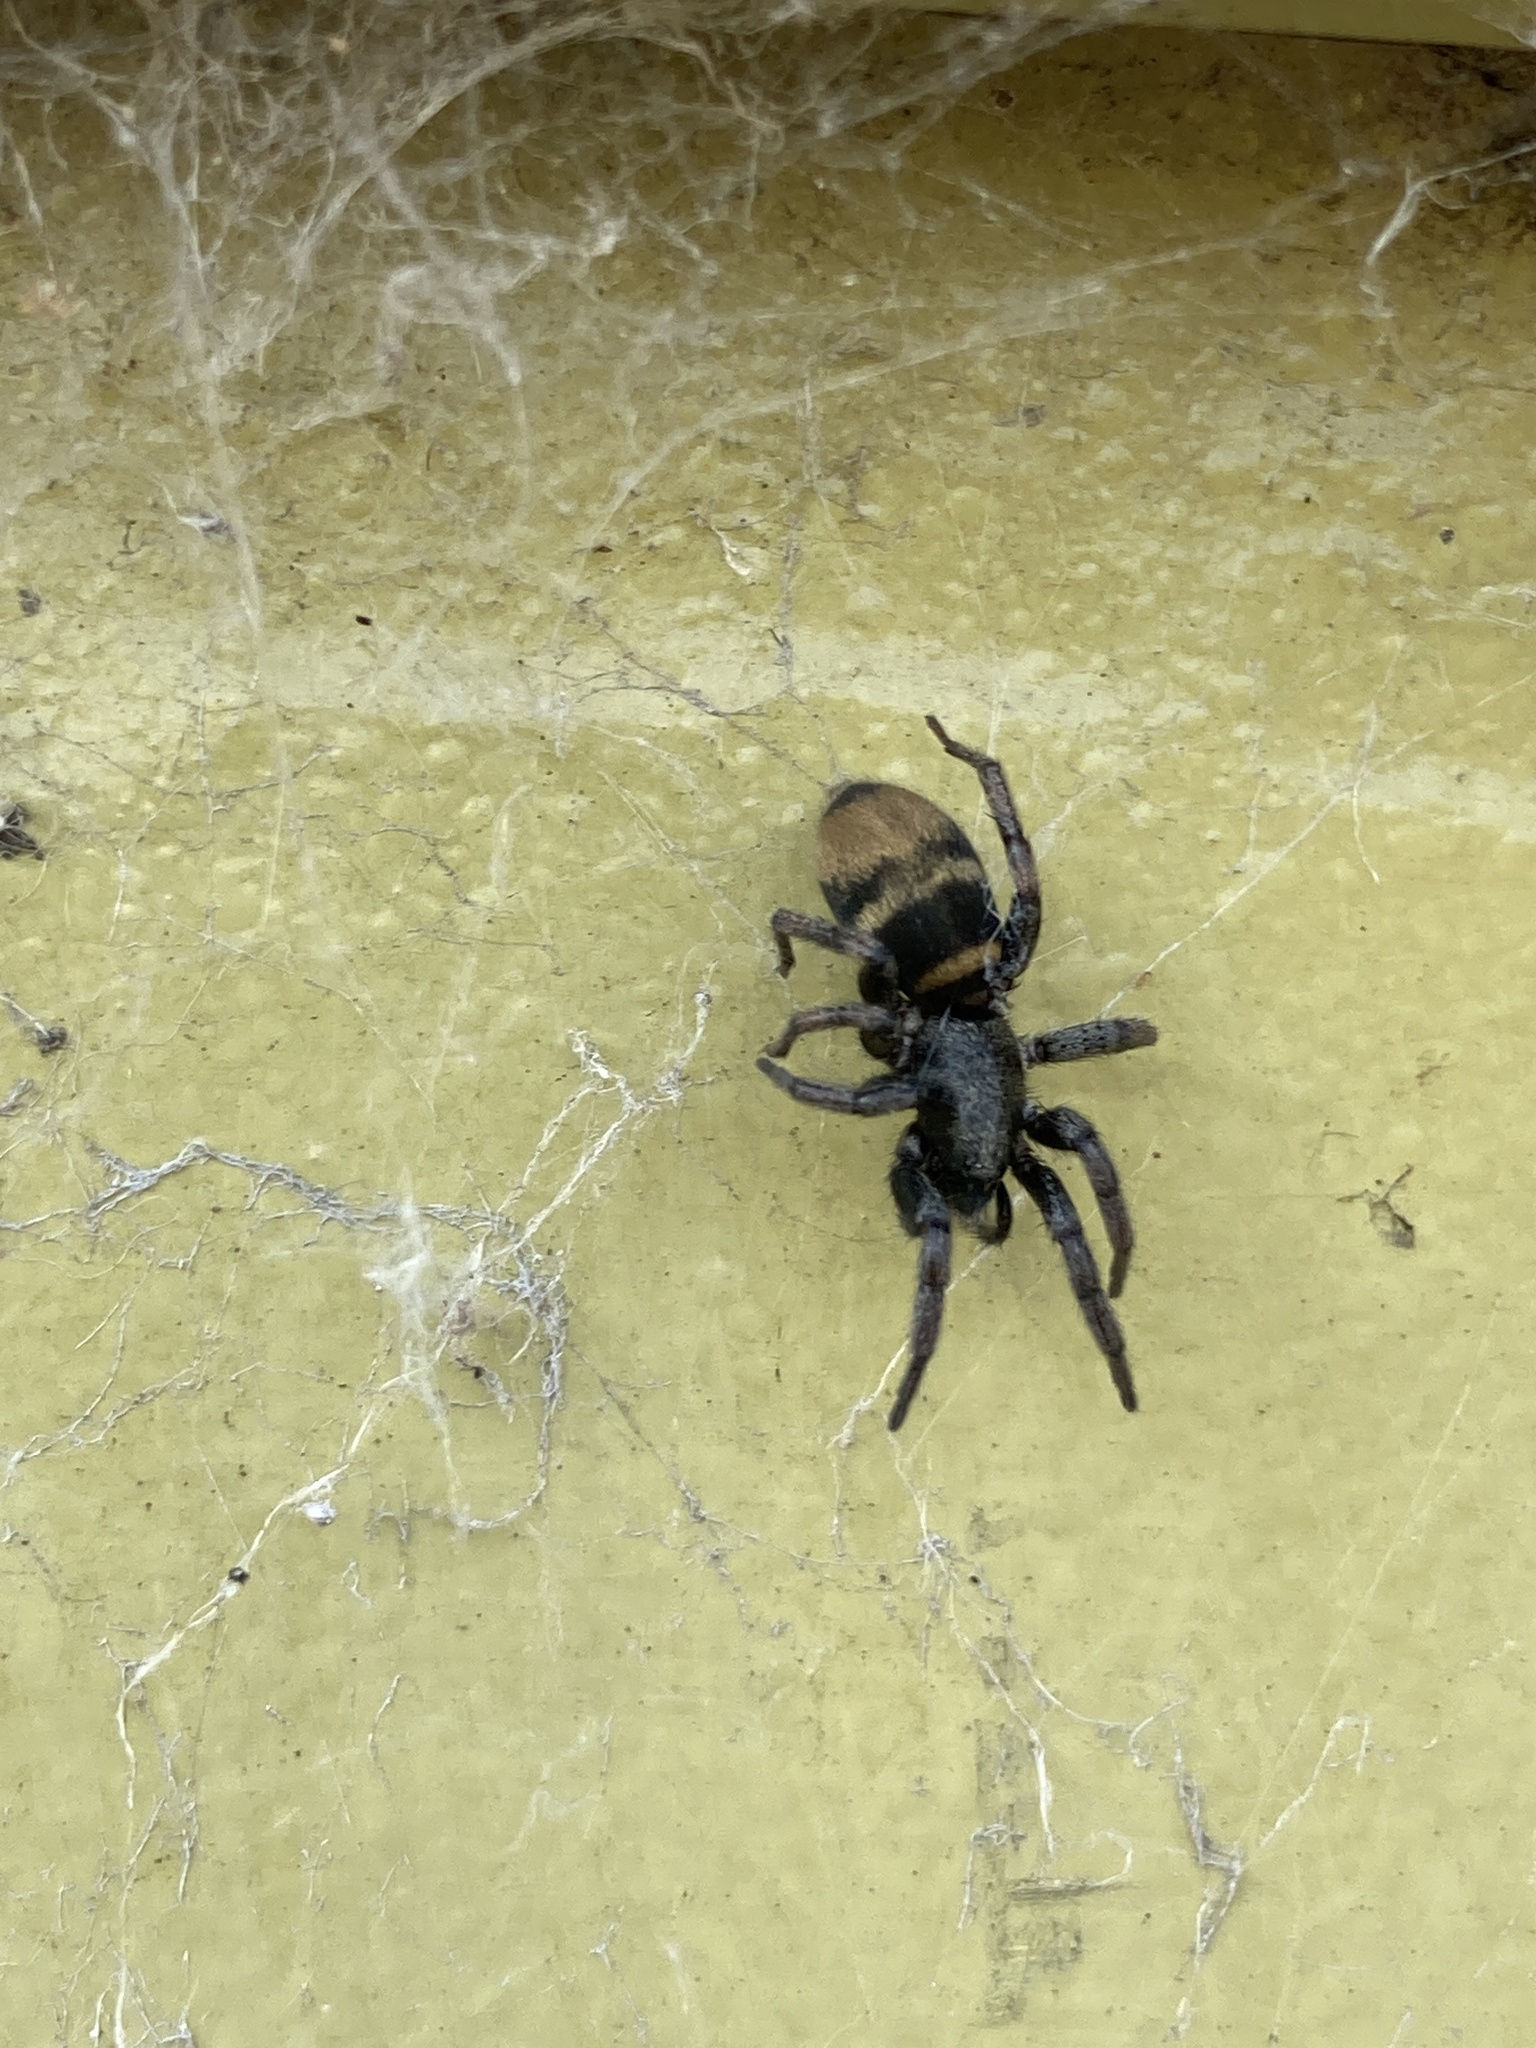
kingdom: Animalia
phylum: Arthropoda
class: Arachnida
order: Araneae
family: Gnaphosidae
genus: Latonigena
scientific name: Latonigena auricomis
